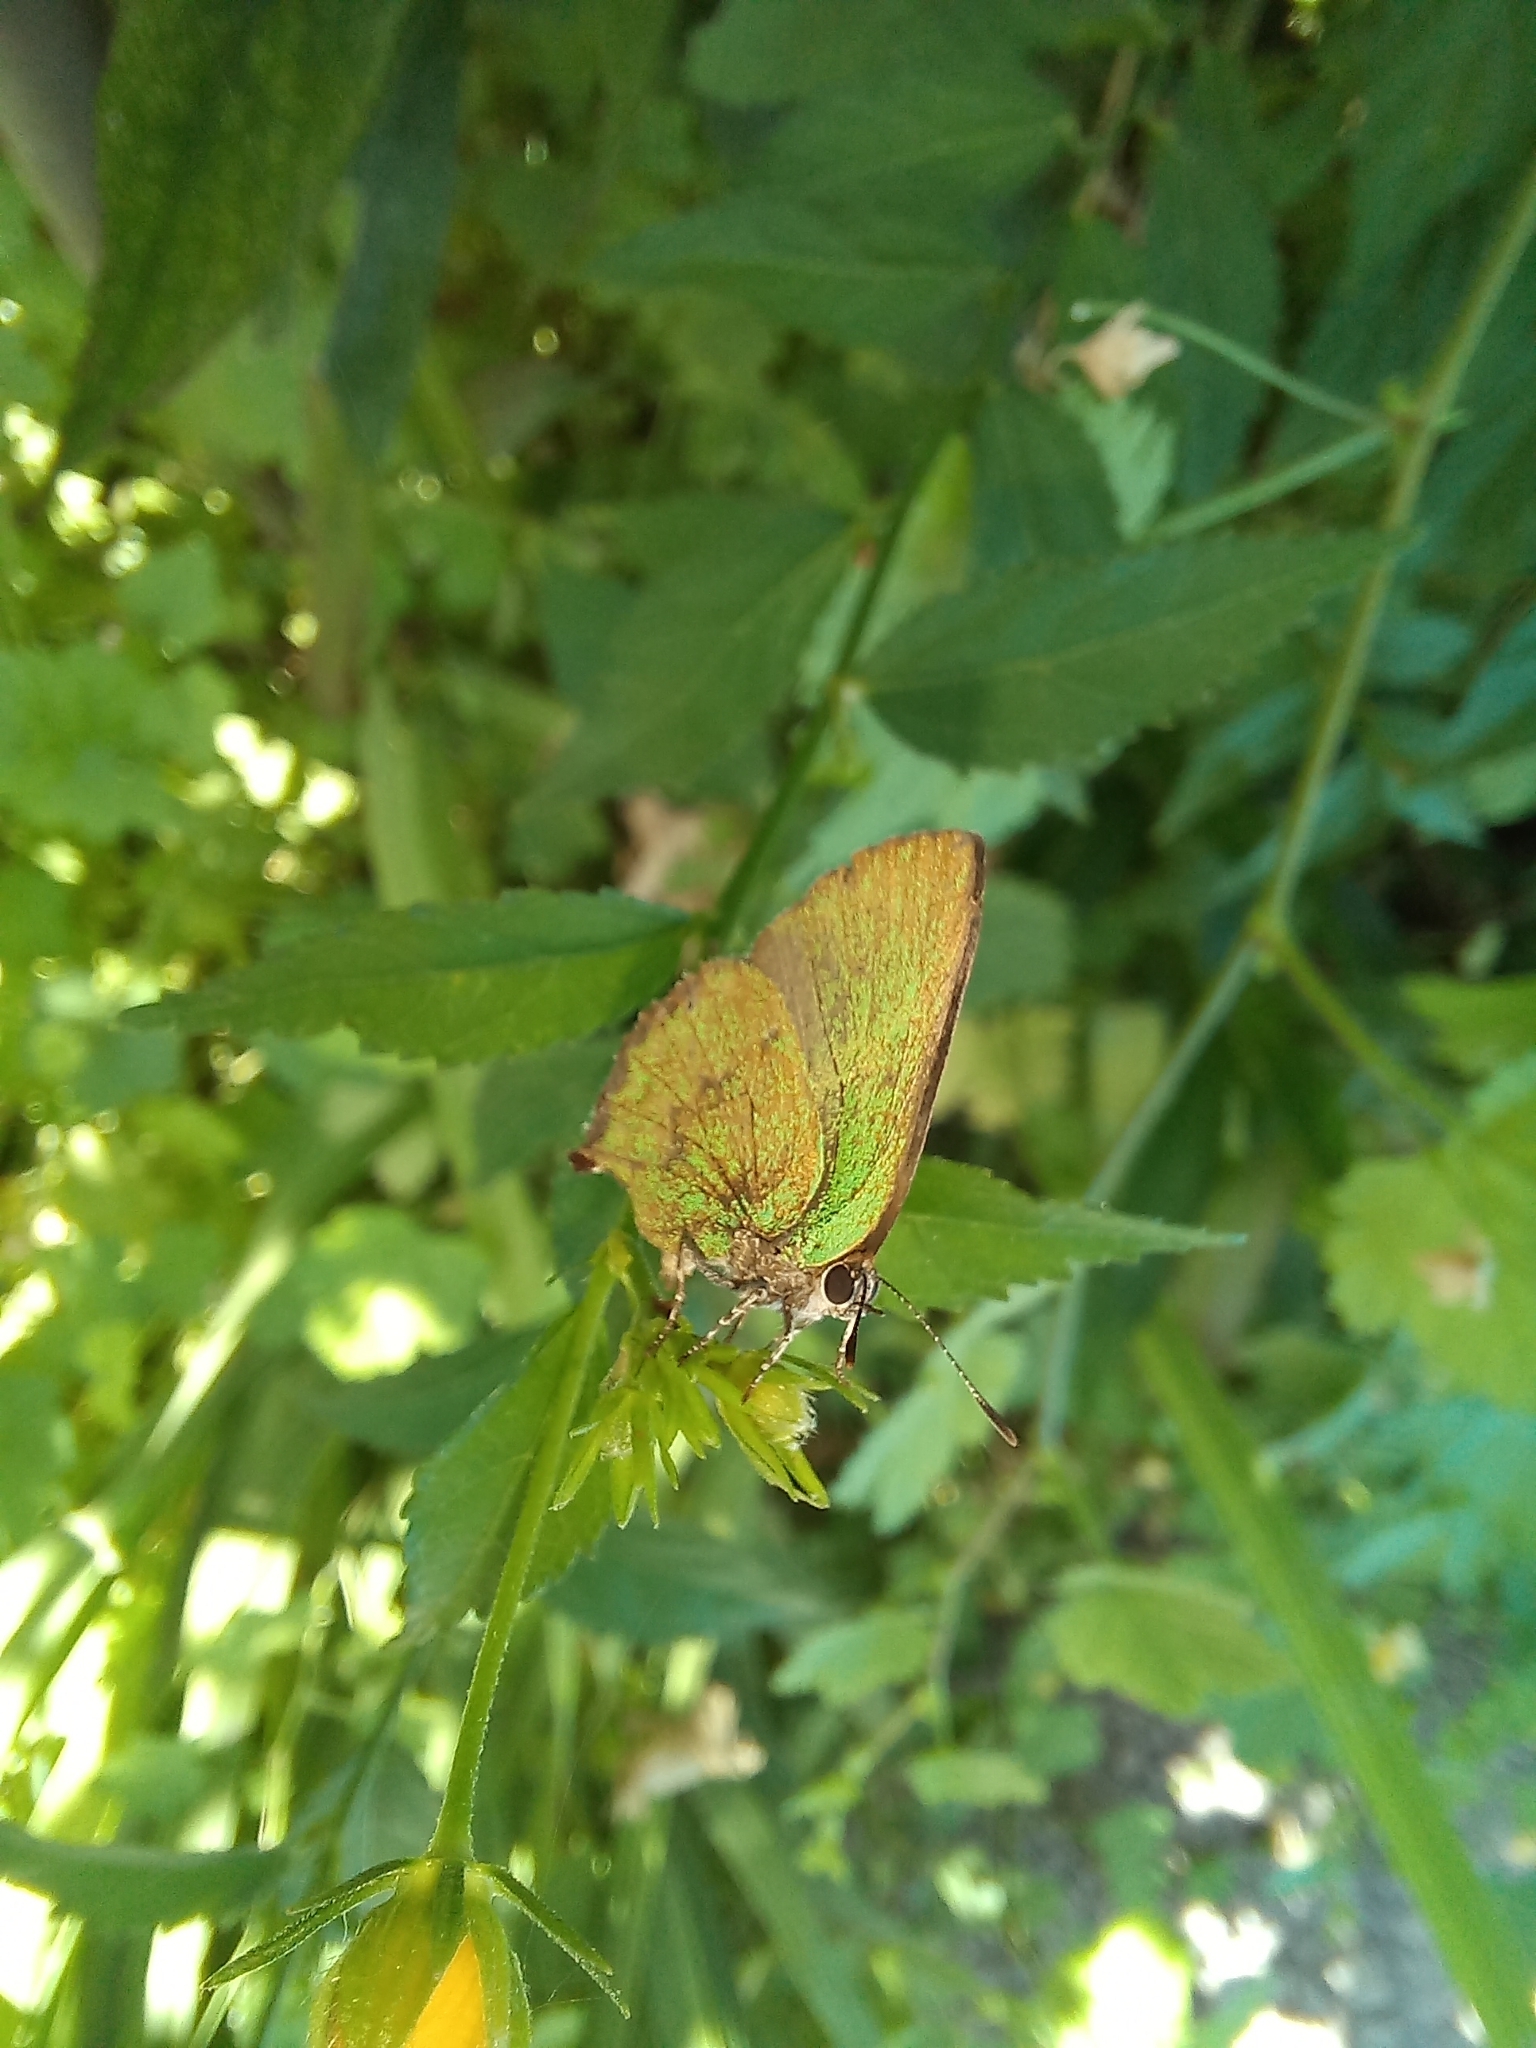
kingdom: Animalia
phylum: Arthropoda
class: Insecta
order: Lepidoptera
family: Lycaenidae
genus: Cyanophrys
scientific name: Cyanophrys
